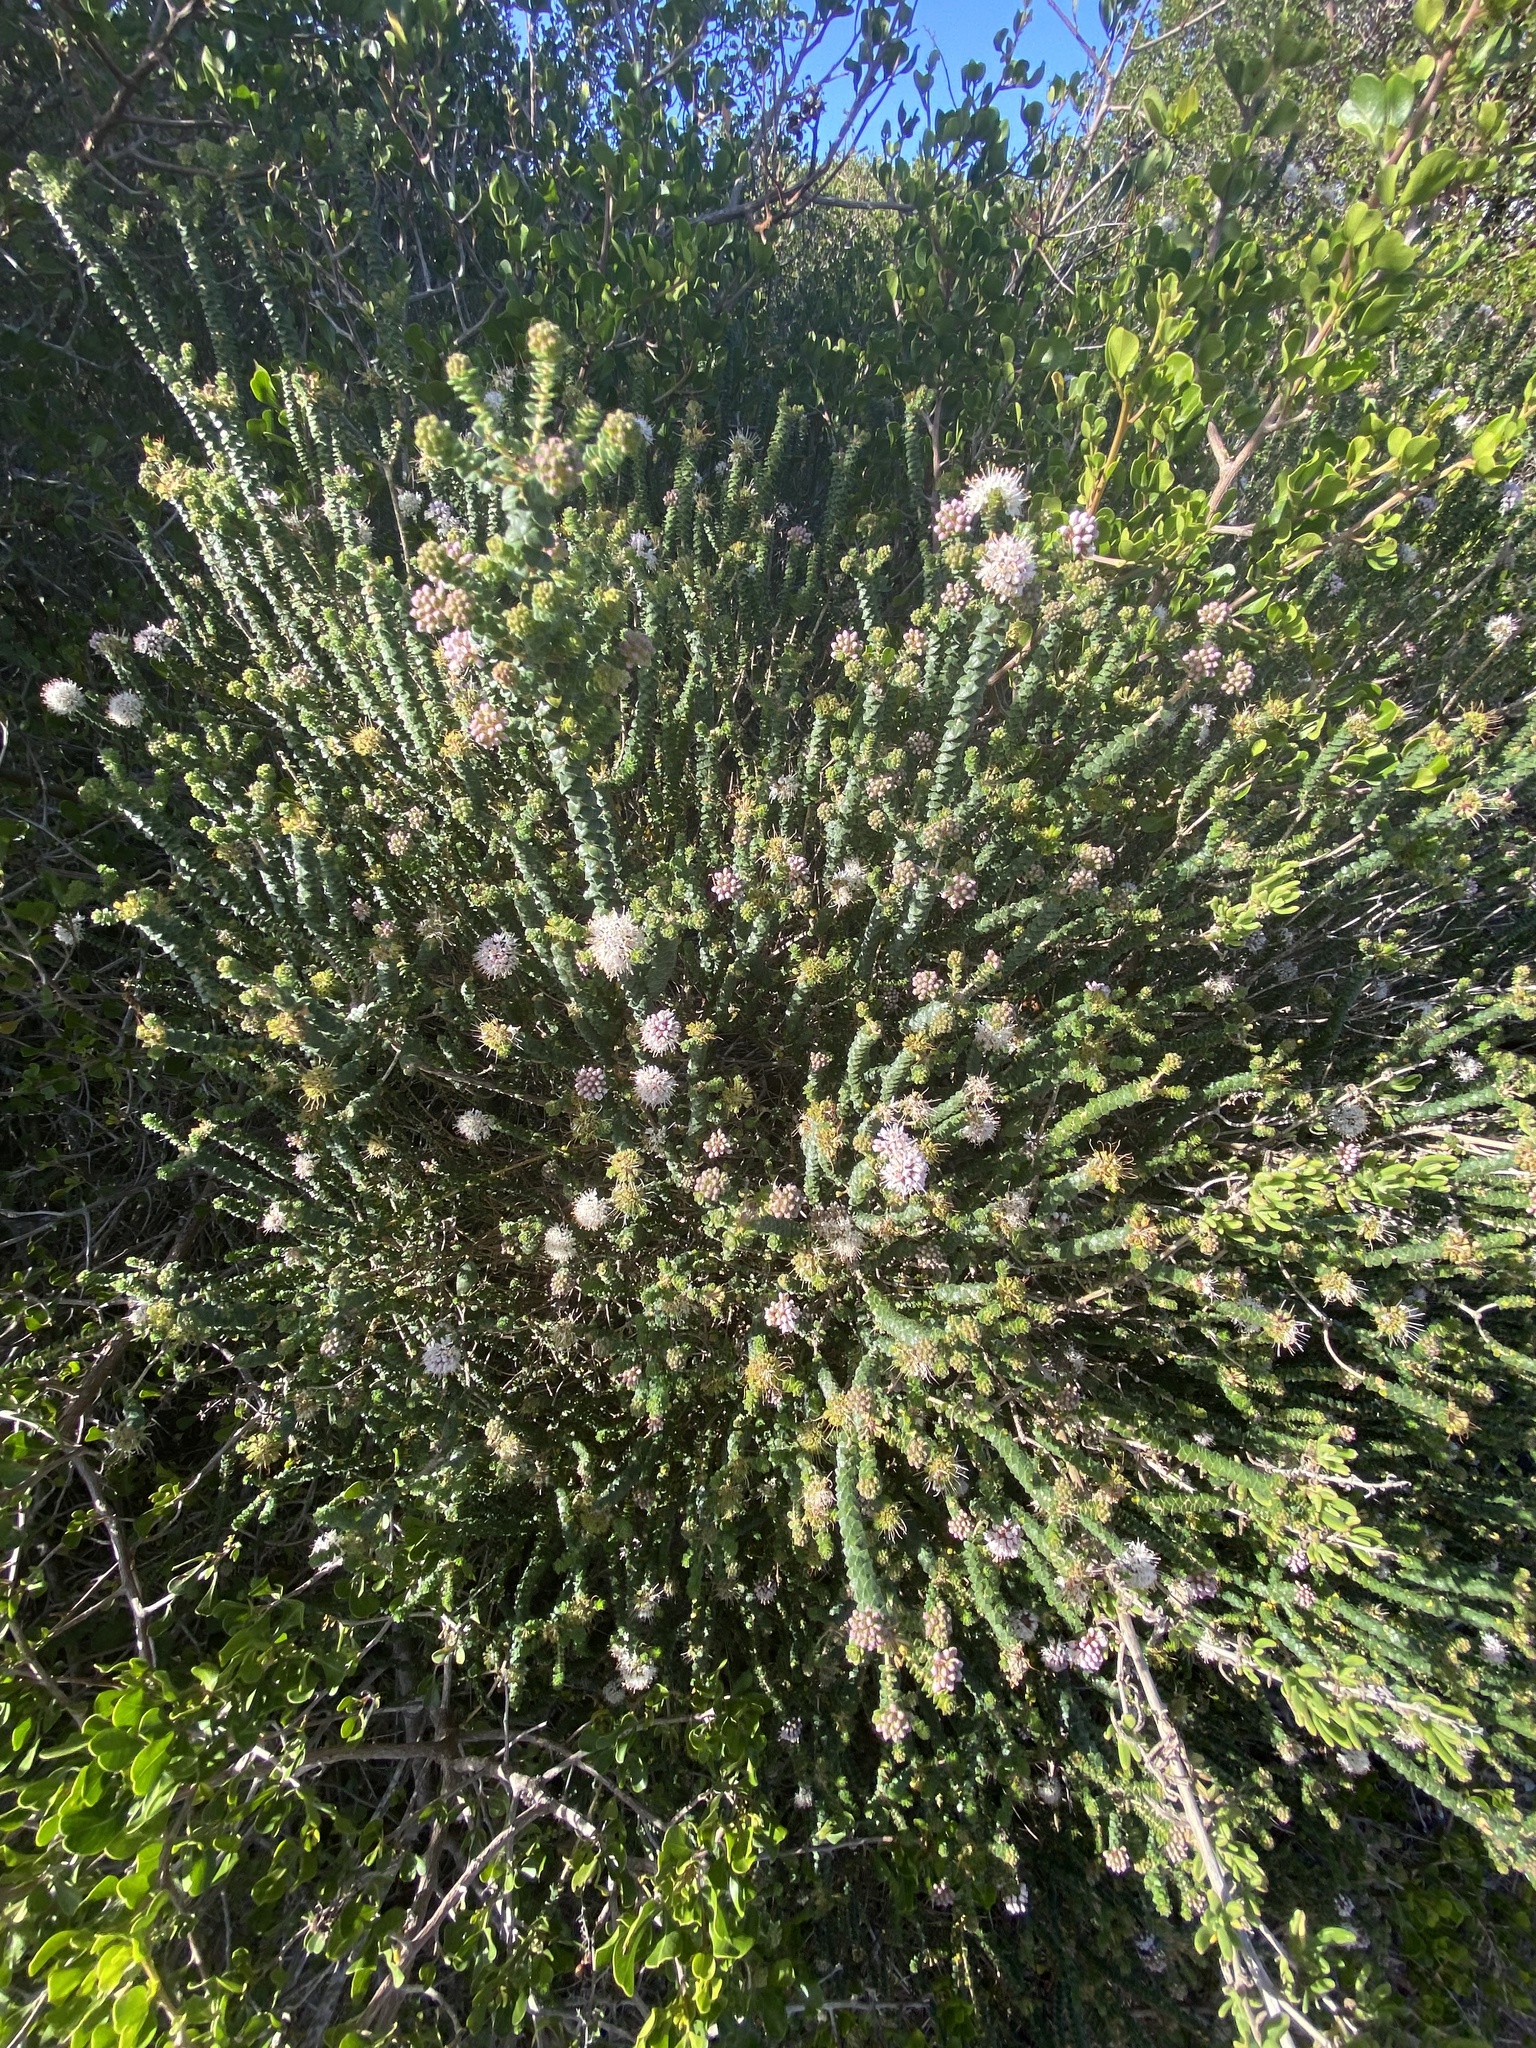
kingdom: Plantae
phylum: Tracheophyta
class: Magnoliopsida
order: Sapindales
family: Rutaceae
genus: Agathosma
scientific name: Agathosma muirii
